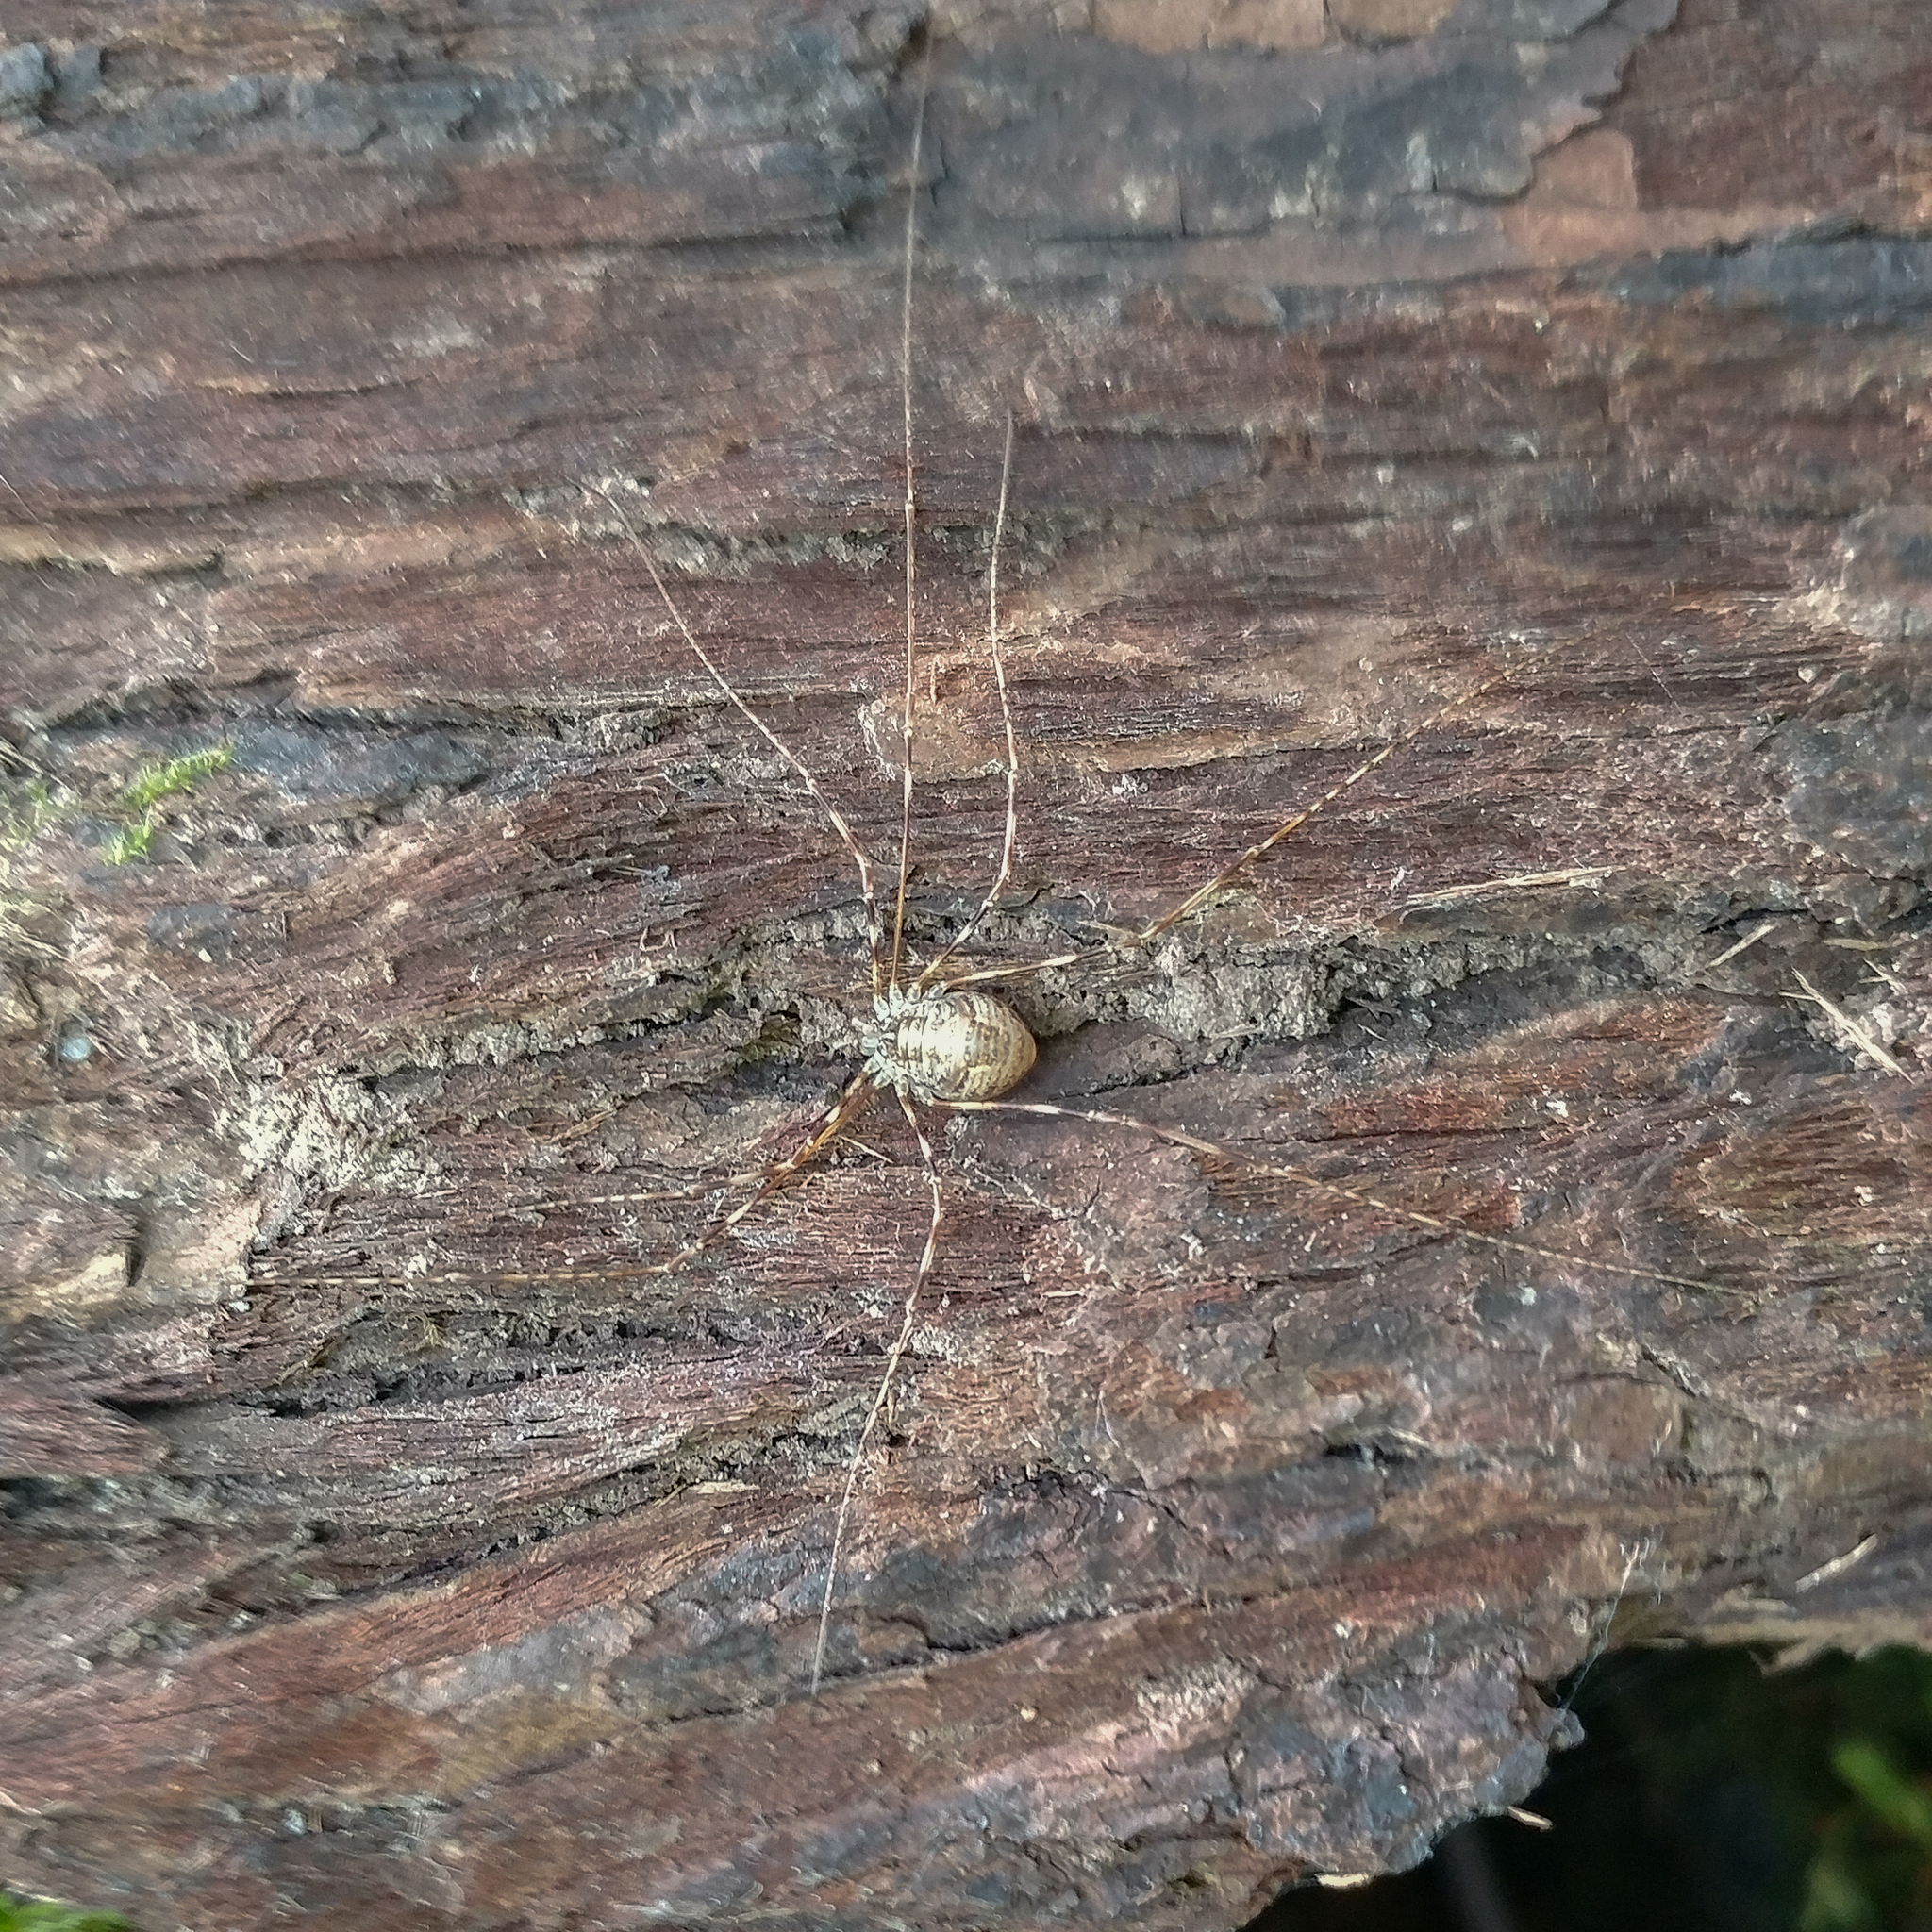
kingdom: Animalia
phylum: Arthropoda
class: Arachnida
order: Opiliones
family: Phalangiidae
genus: Leptobunus
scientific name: Leptobunus parvulus
